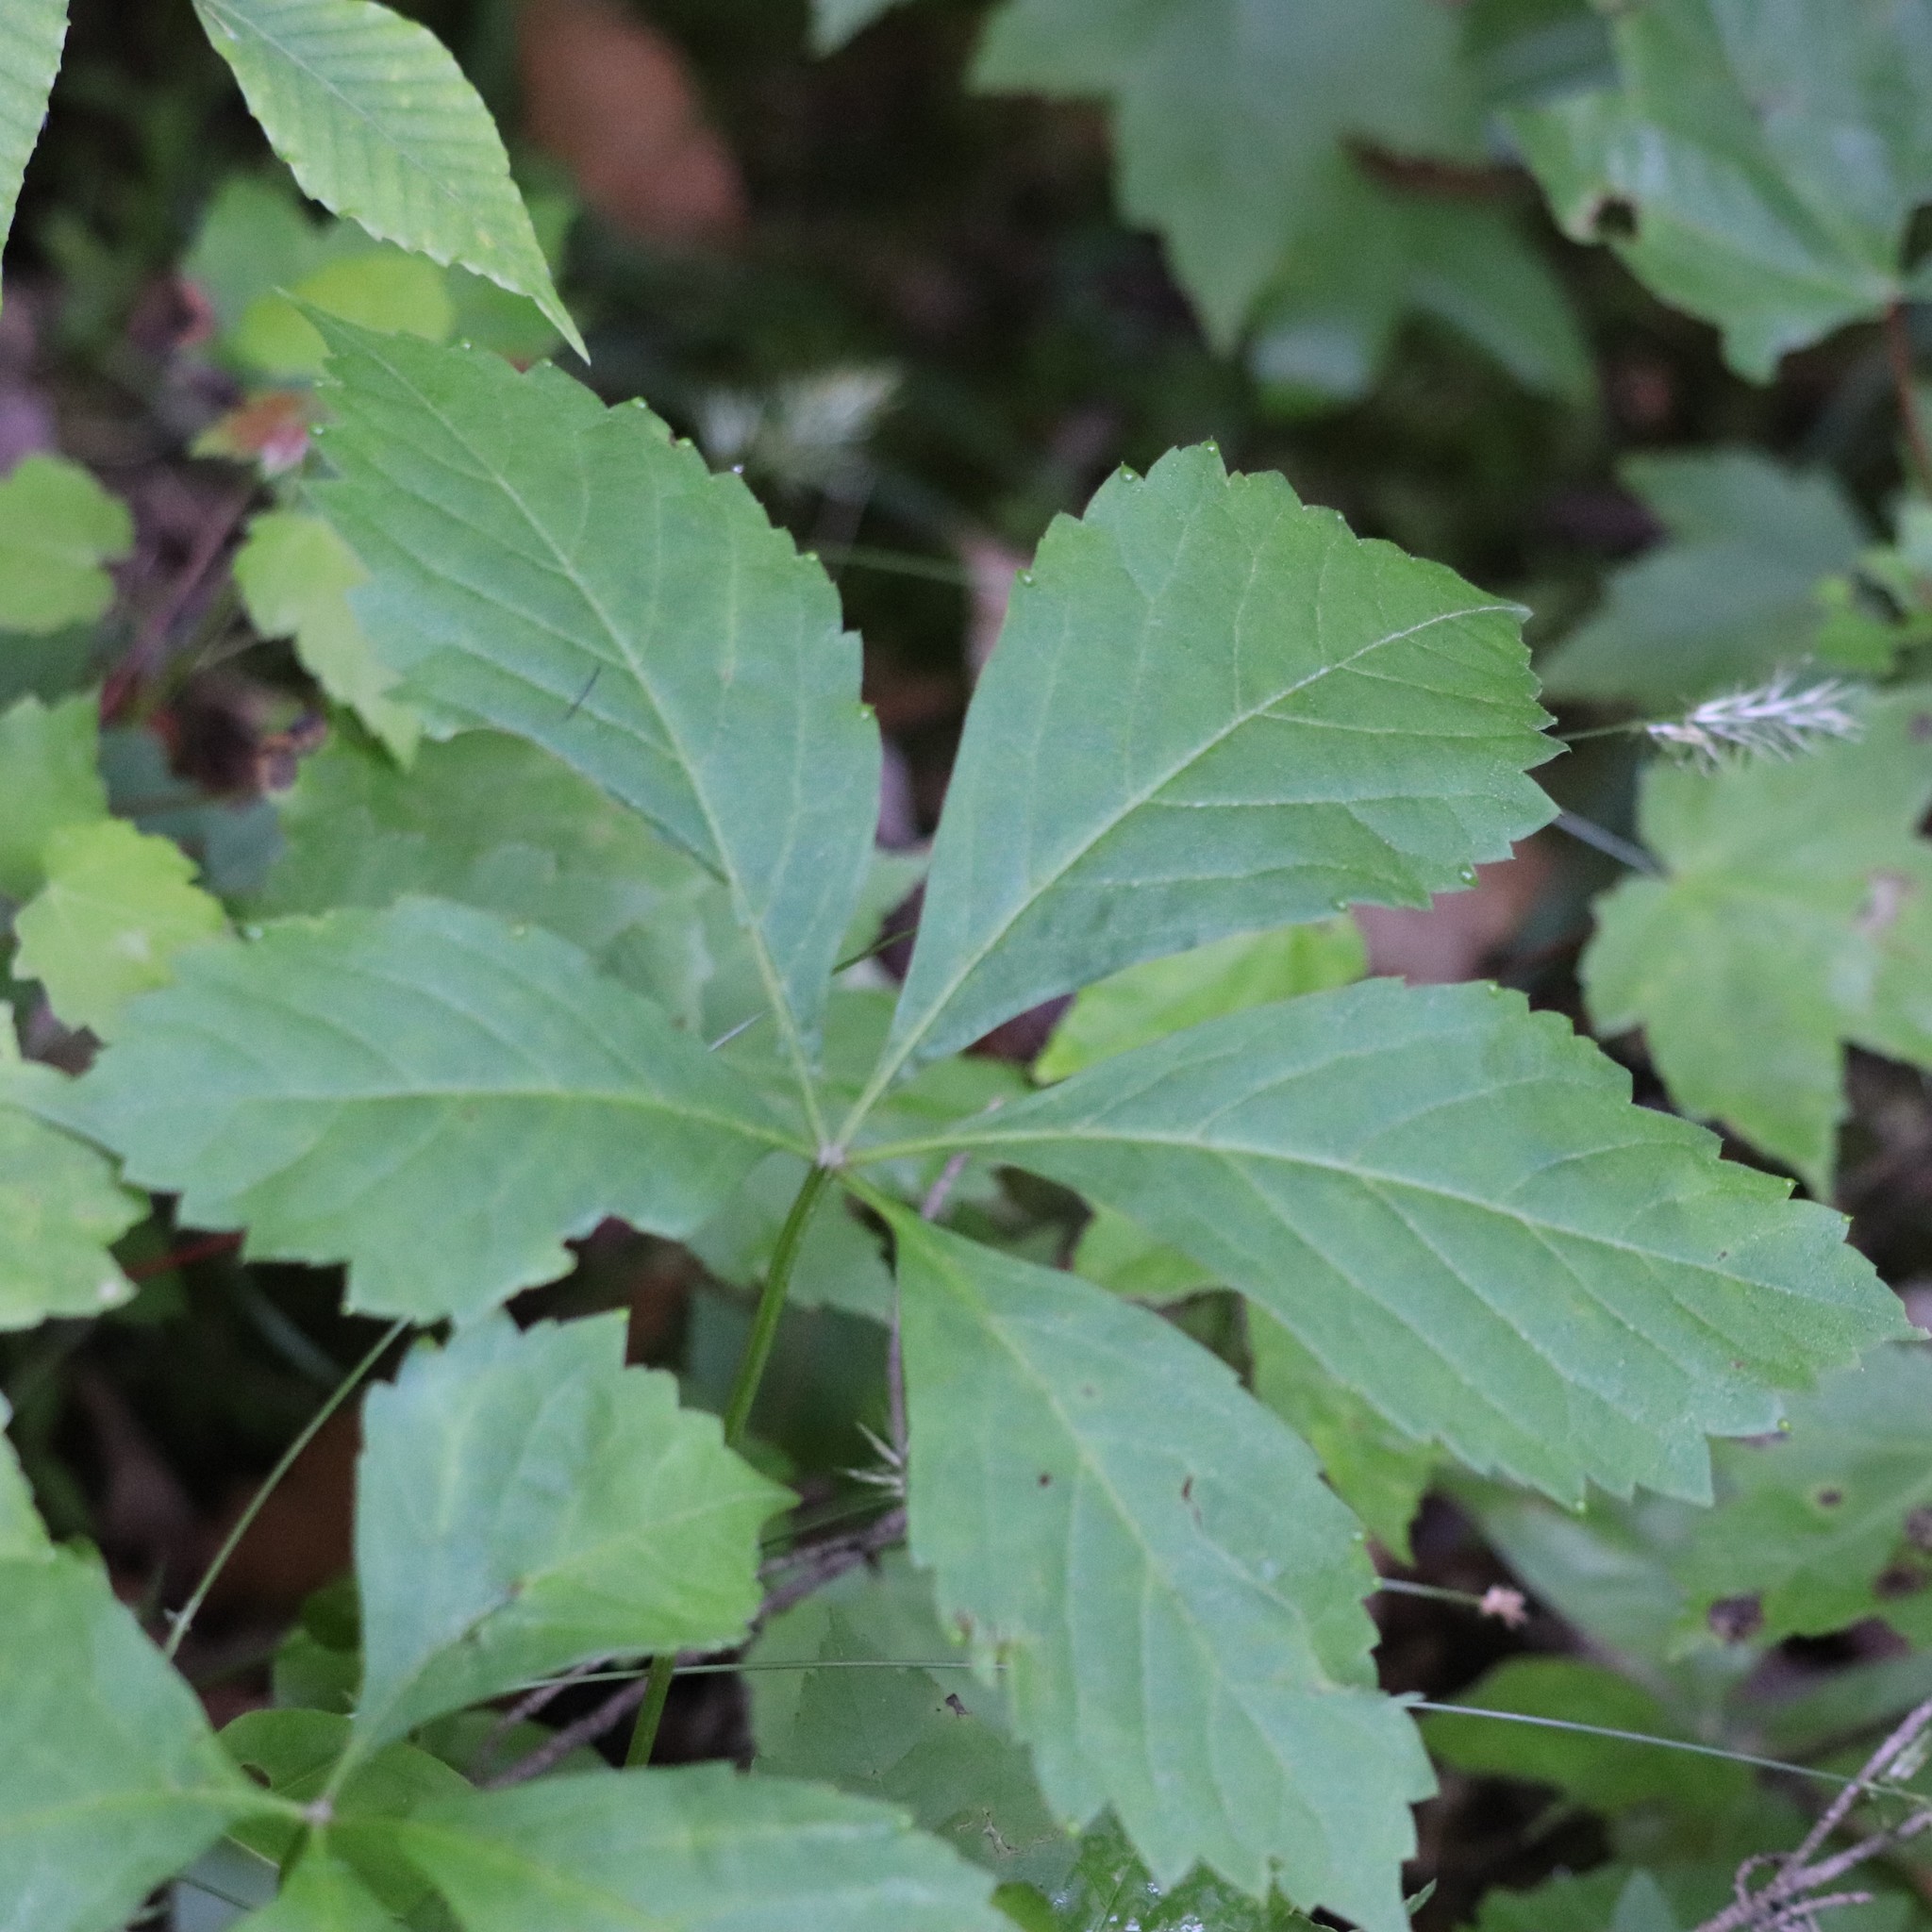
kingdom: Plantae
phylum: Tracheophyta
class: Magnoliopsida
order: Vitales
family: Vitaceae
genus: Parthenocissus
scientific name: Parthenocissus quinquefolia
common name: Virginia-creeper
